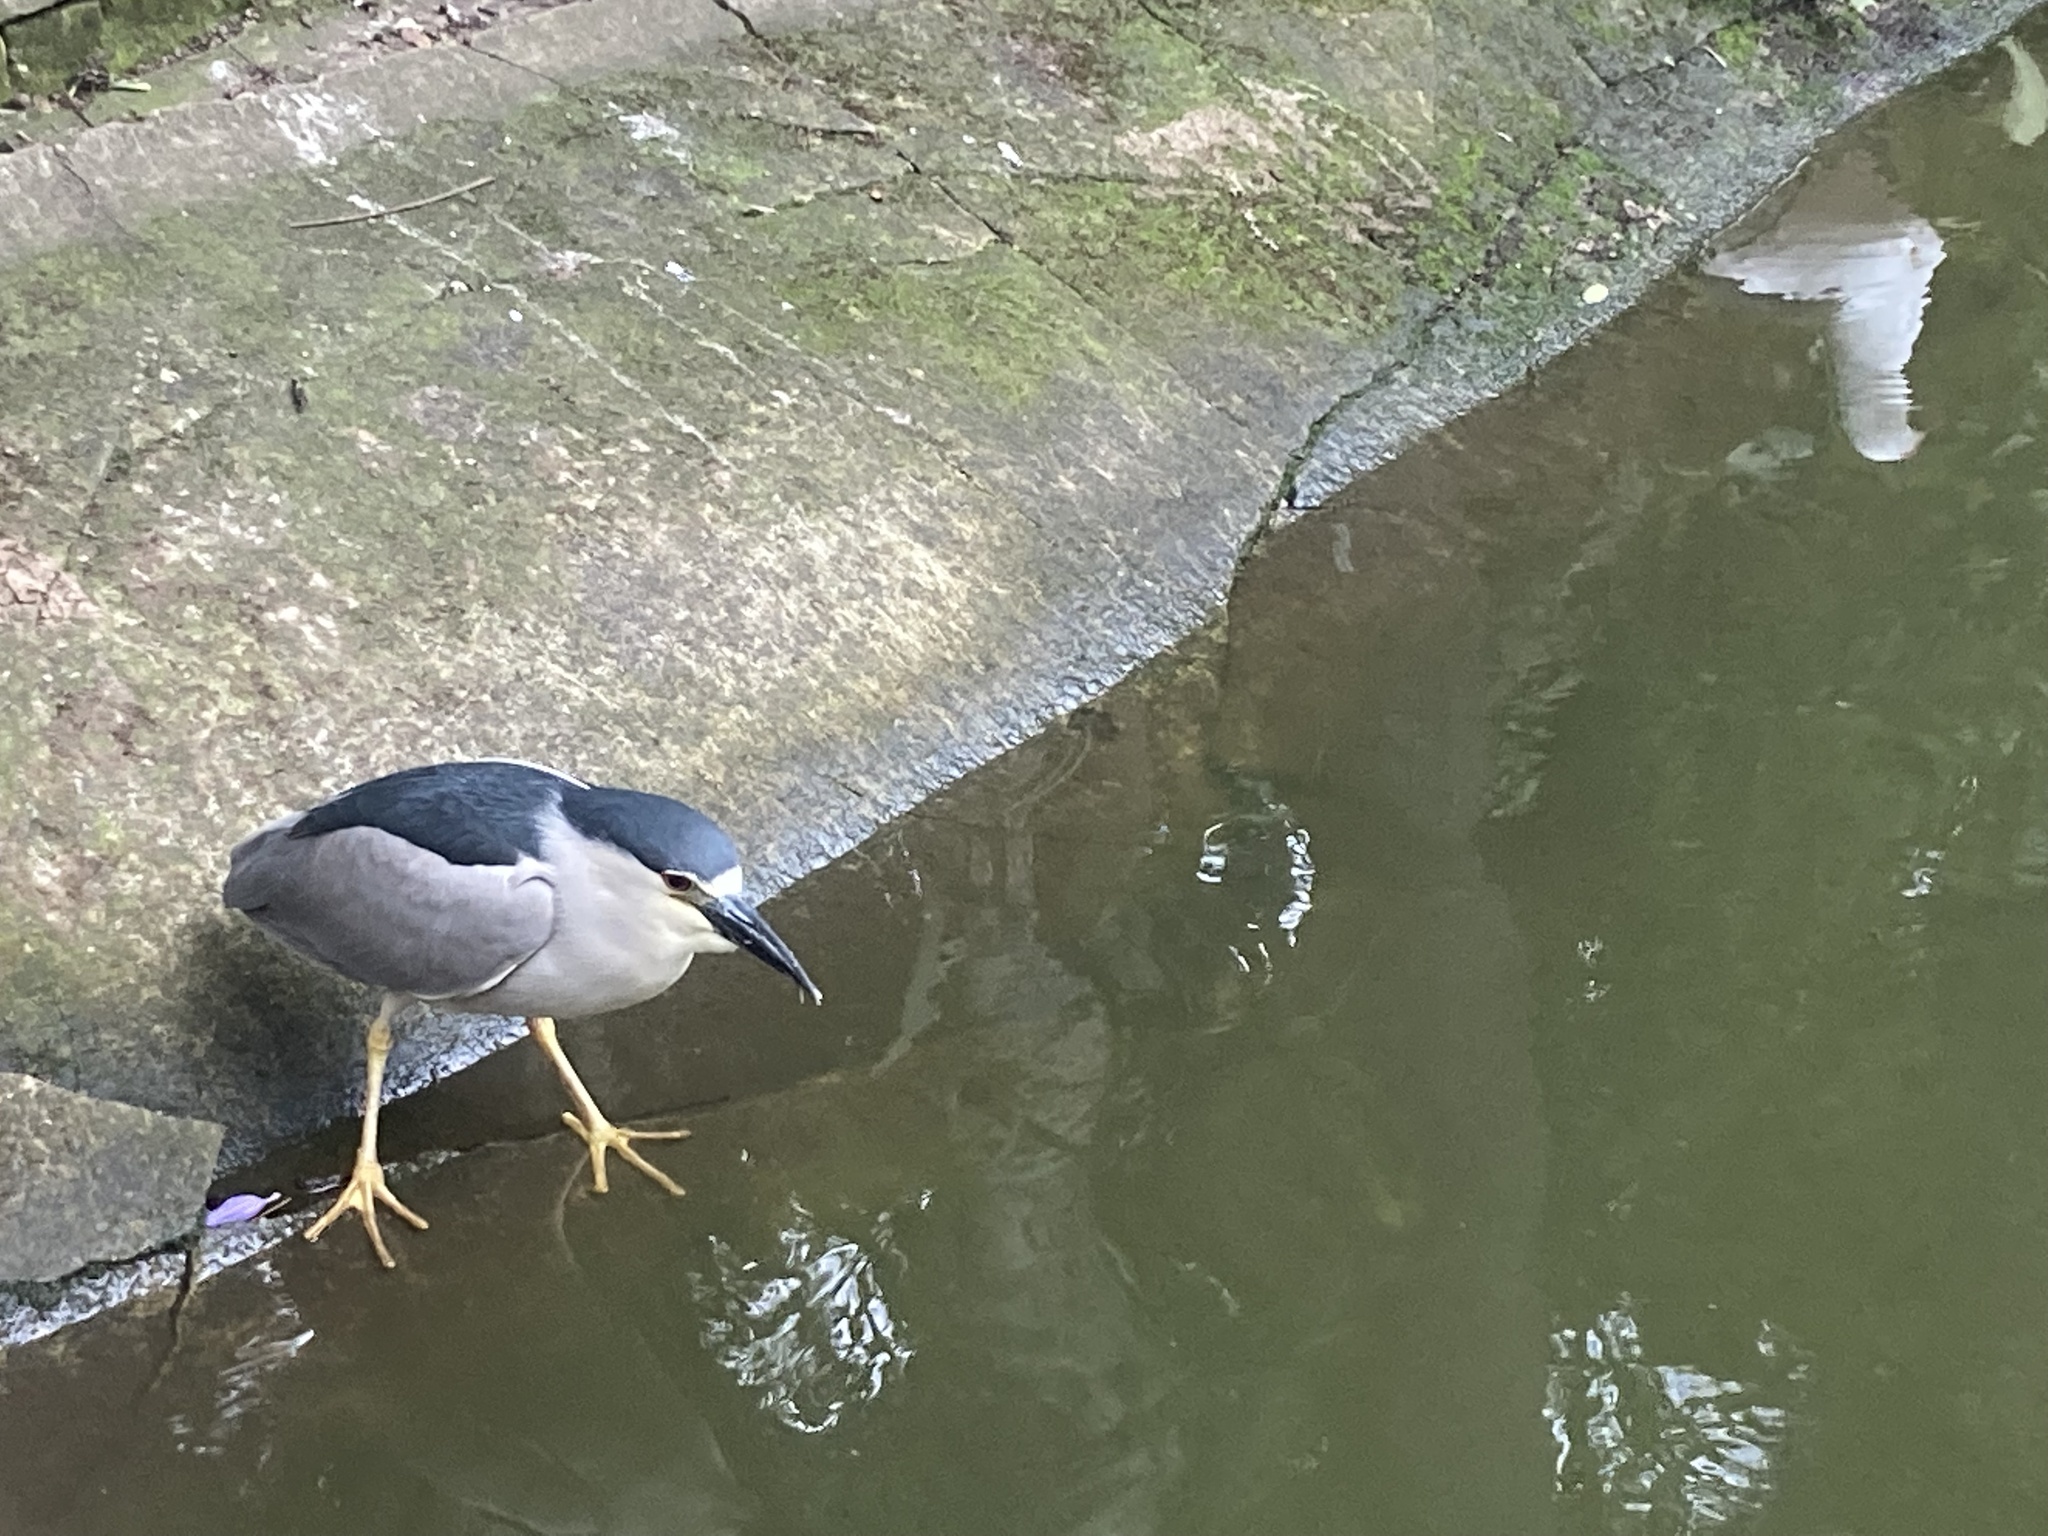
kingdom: Animalia
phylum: Chordata
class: Aves
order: Pelecaniformes
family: Ardeidae
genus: Nycticorax
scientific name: Nycticorax nycticorax
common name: Black-crowned night heron
